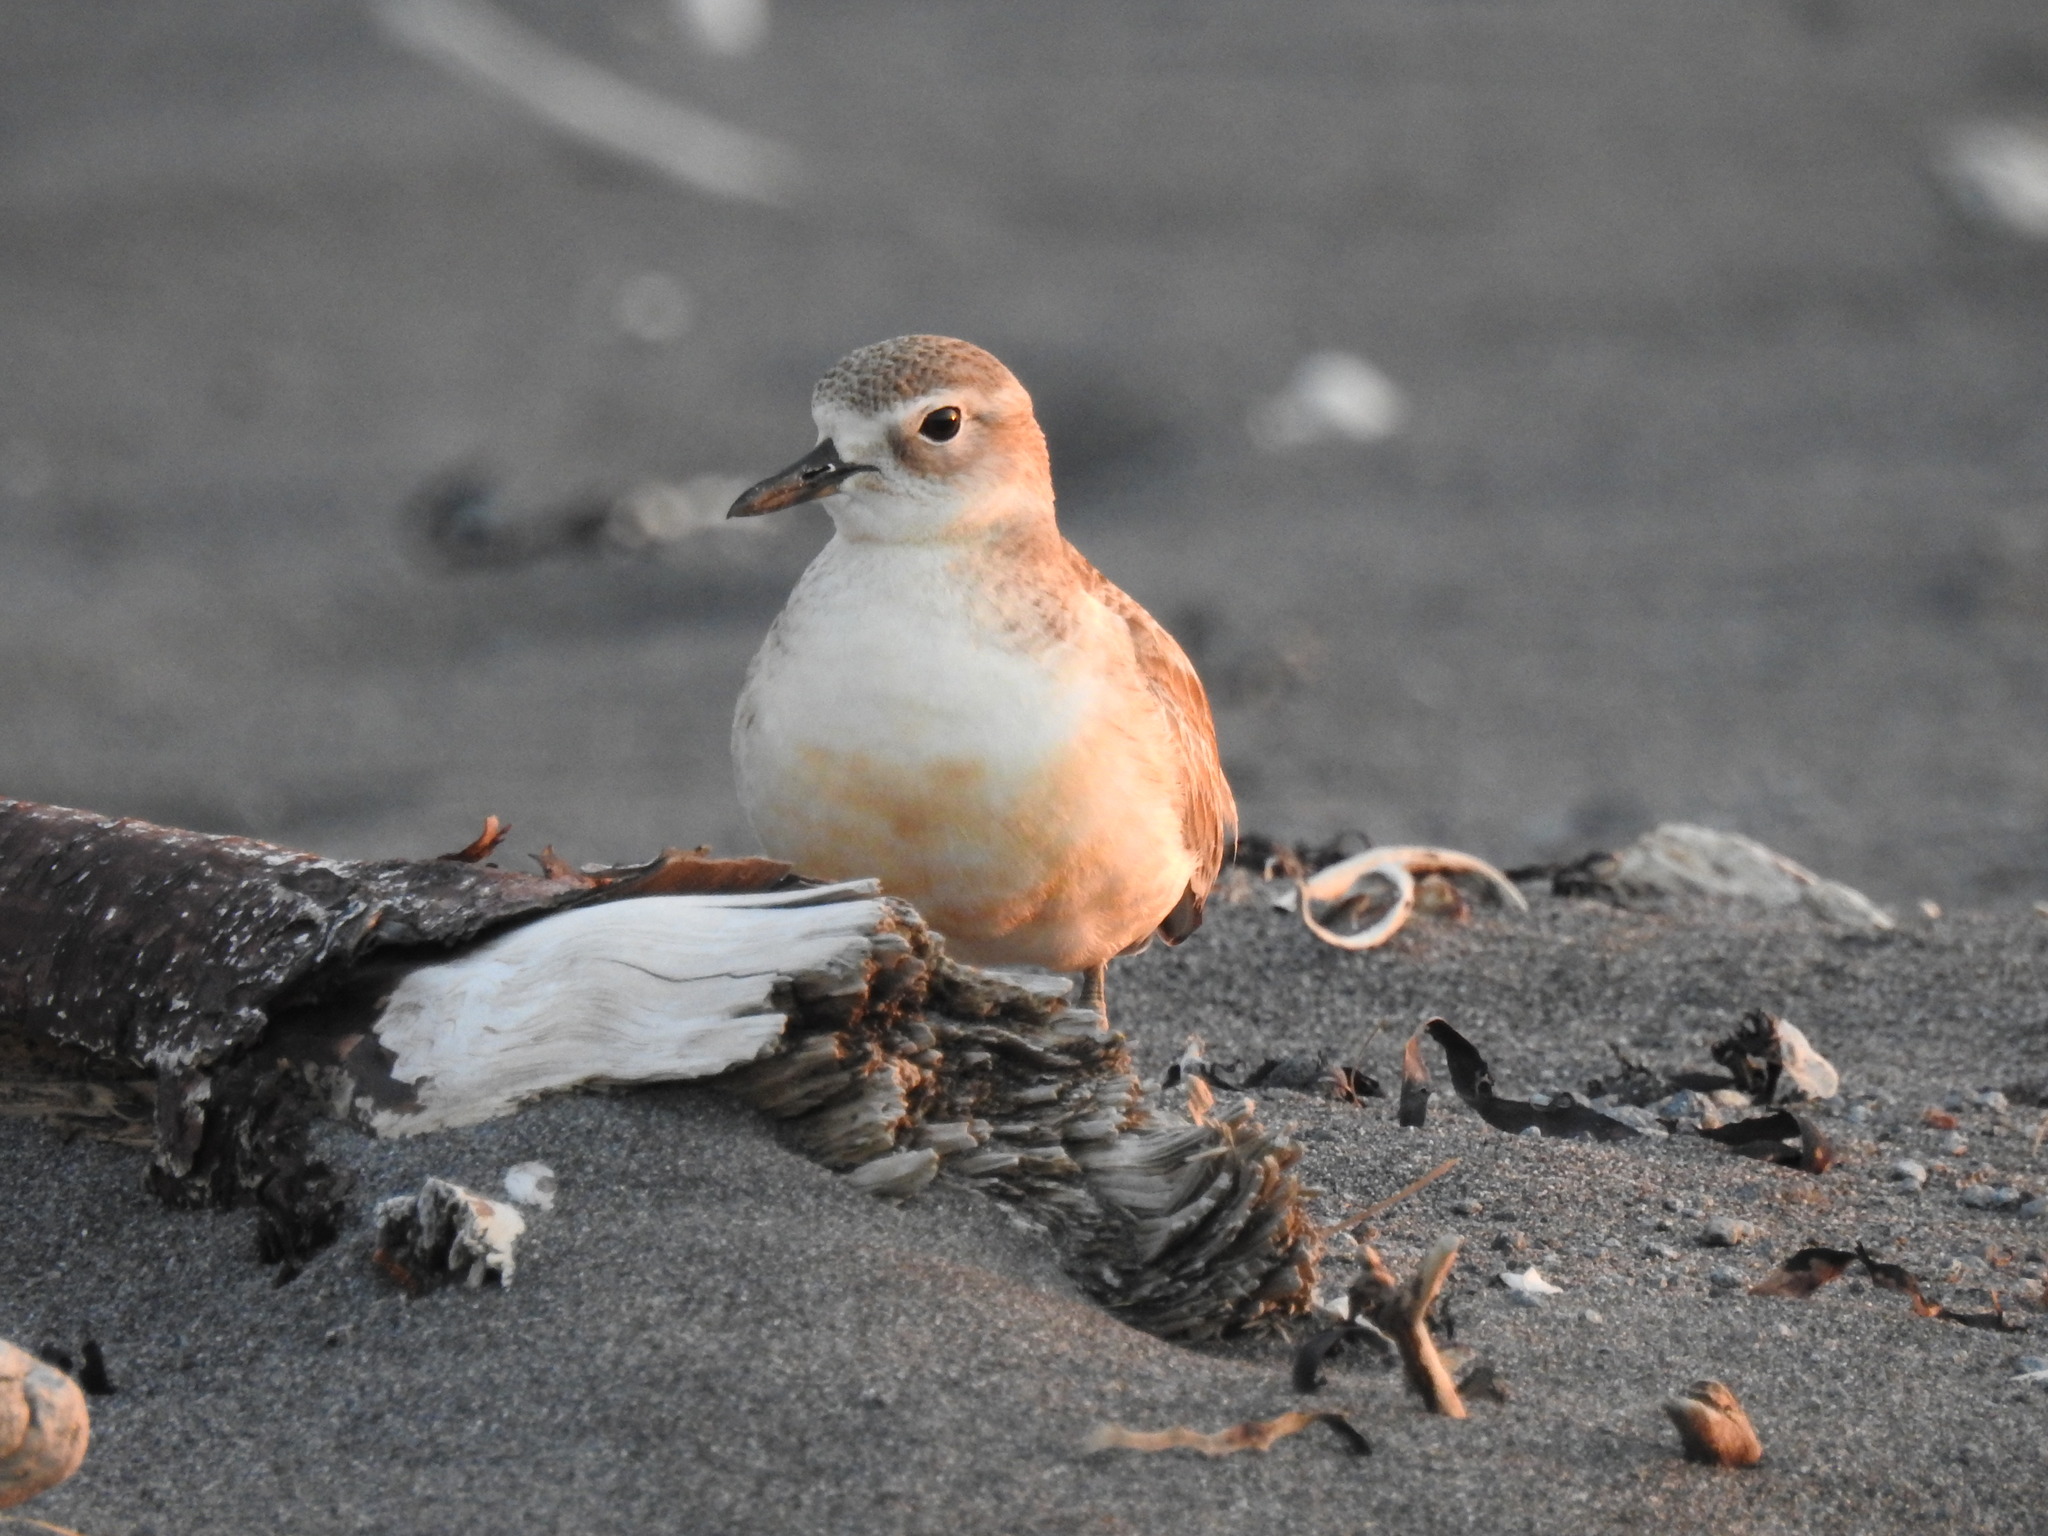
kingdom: Animalia
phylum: Chordata
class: Aves
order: Charadriiformes
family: Charadriidae
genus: Anarhynchus
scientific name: Anarhynchus
